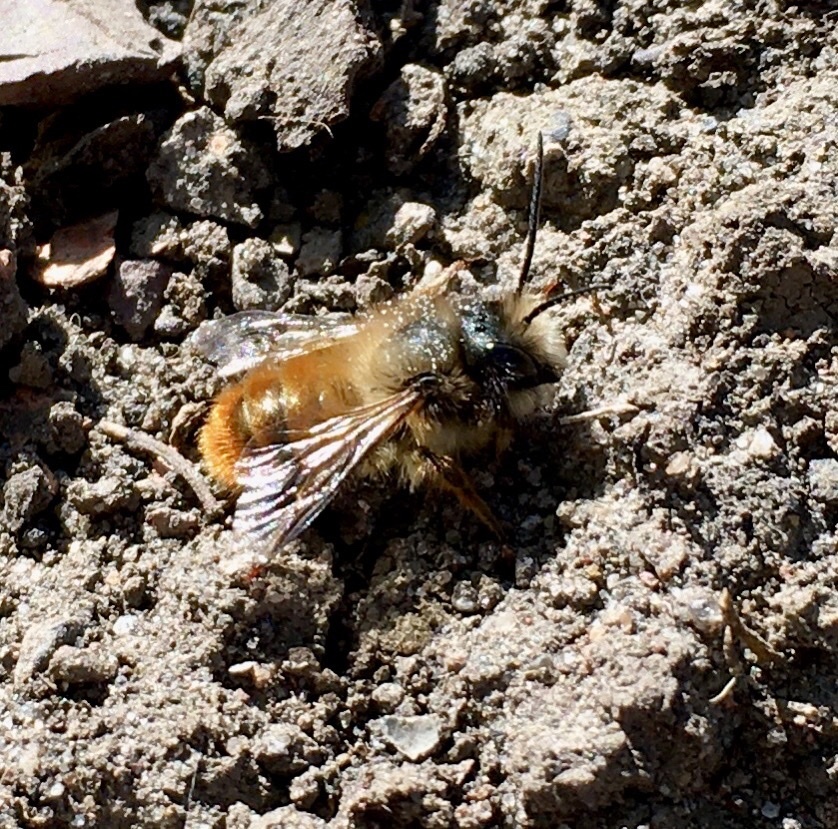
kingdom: Animalia
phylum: Arthropoda
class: Insecta
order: Hymenoptera
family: Megachilidae
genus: Osmia
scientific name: Osmia bicornis
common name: Red mason bee
